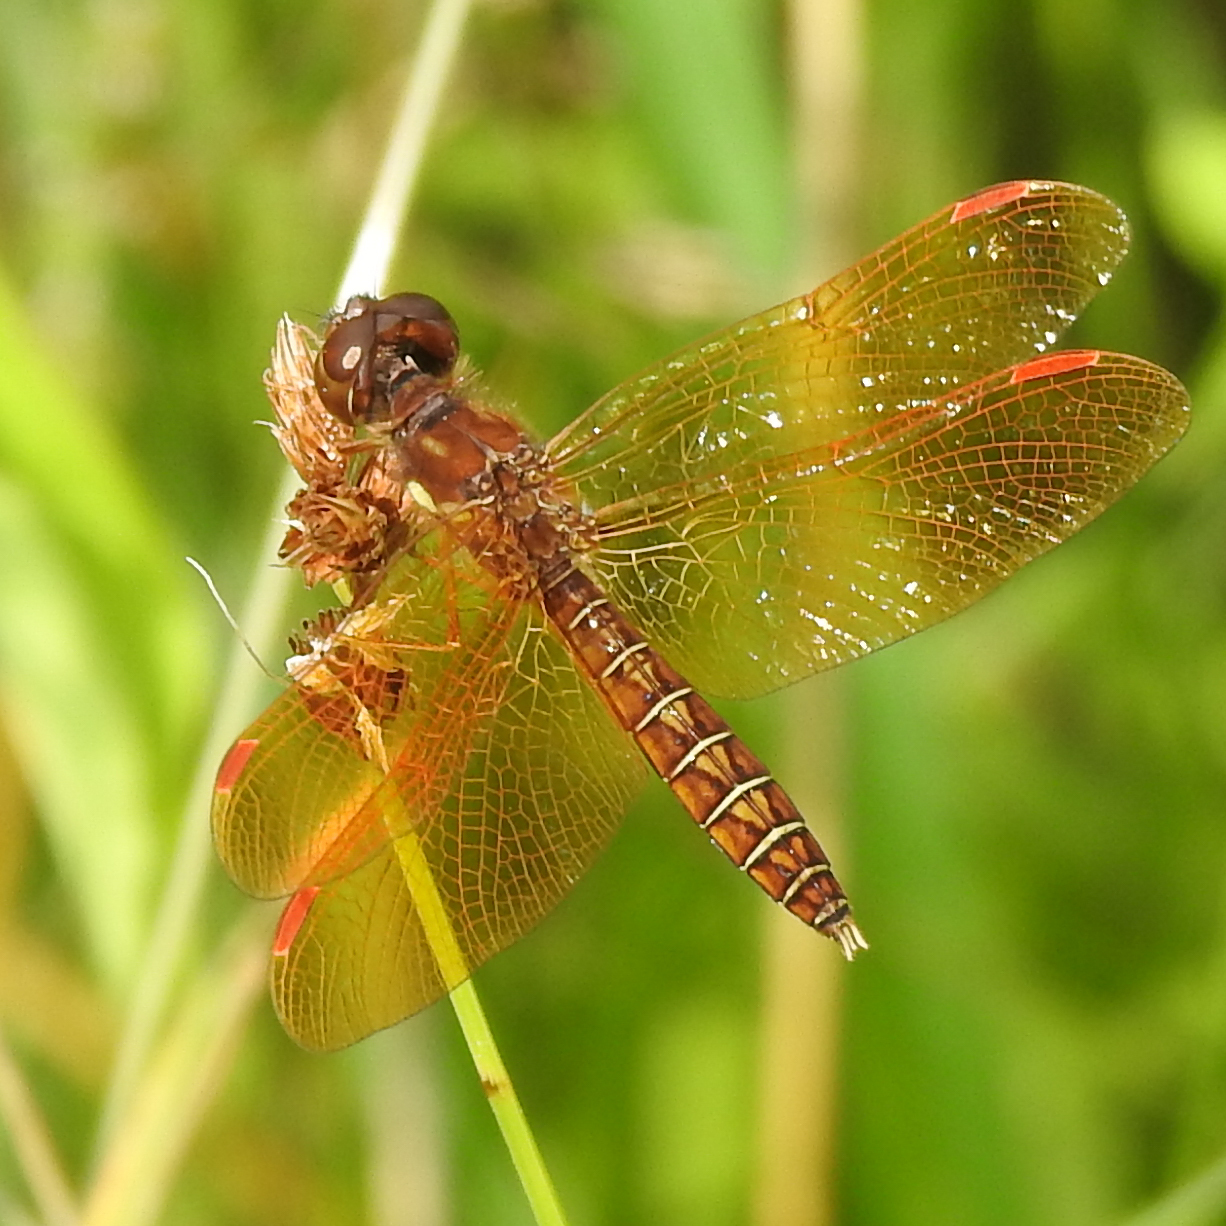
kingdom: Animalia
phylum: Arthropoda
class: Insecta
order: Odonata
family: Libellulidae
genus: Perithemis
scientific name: Perithemis tenera
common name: Eastern amberwing
